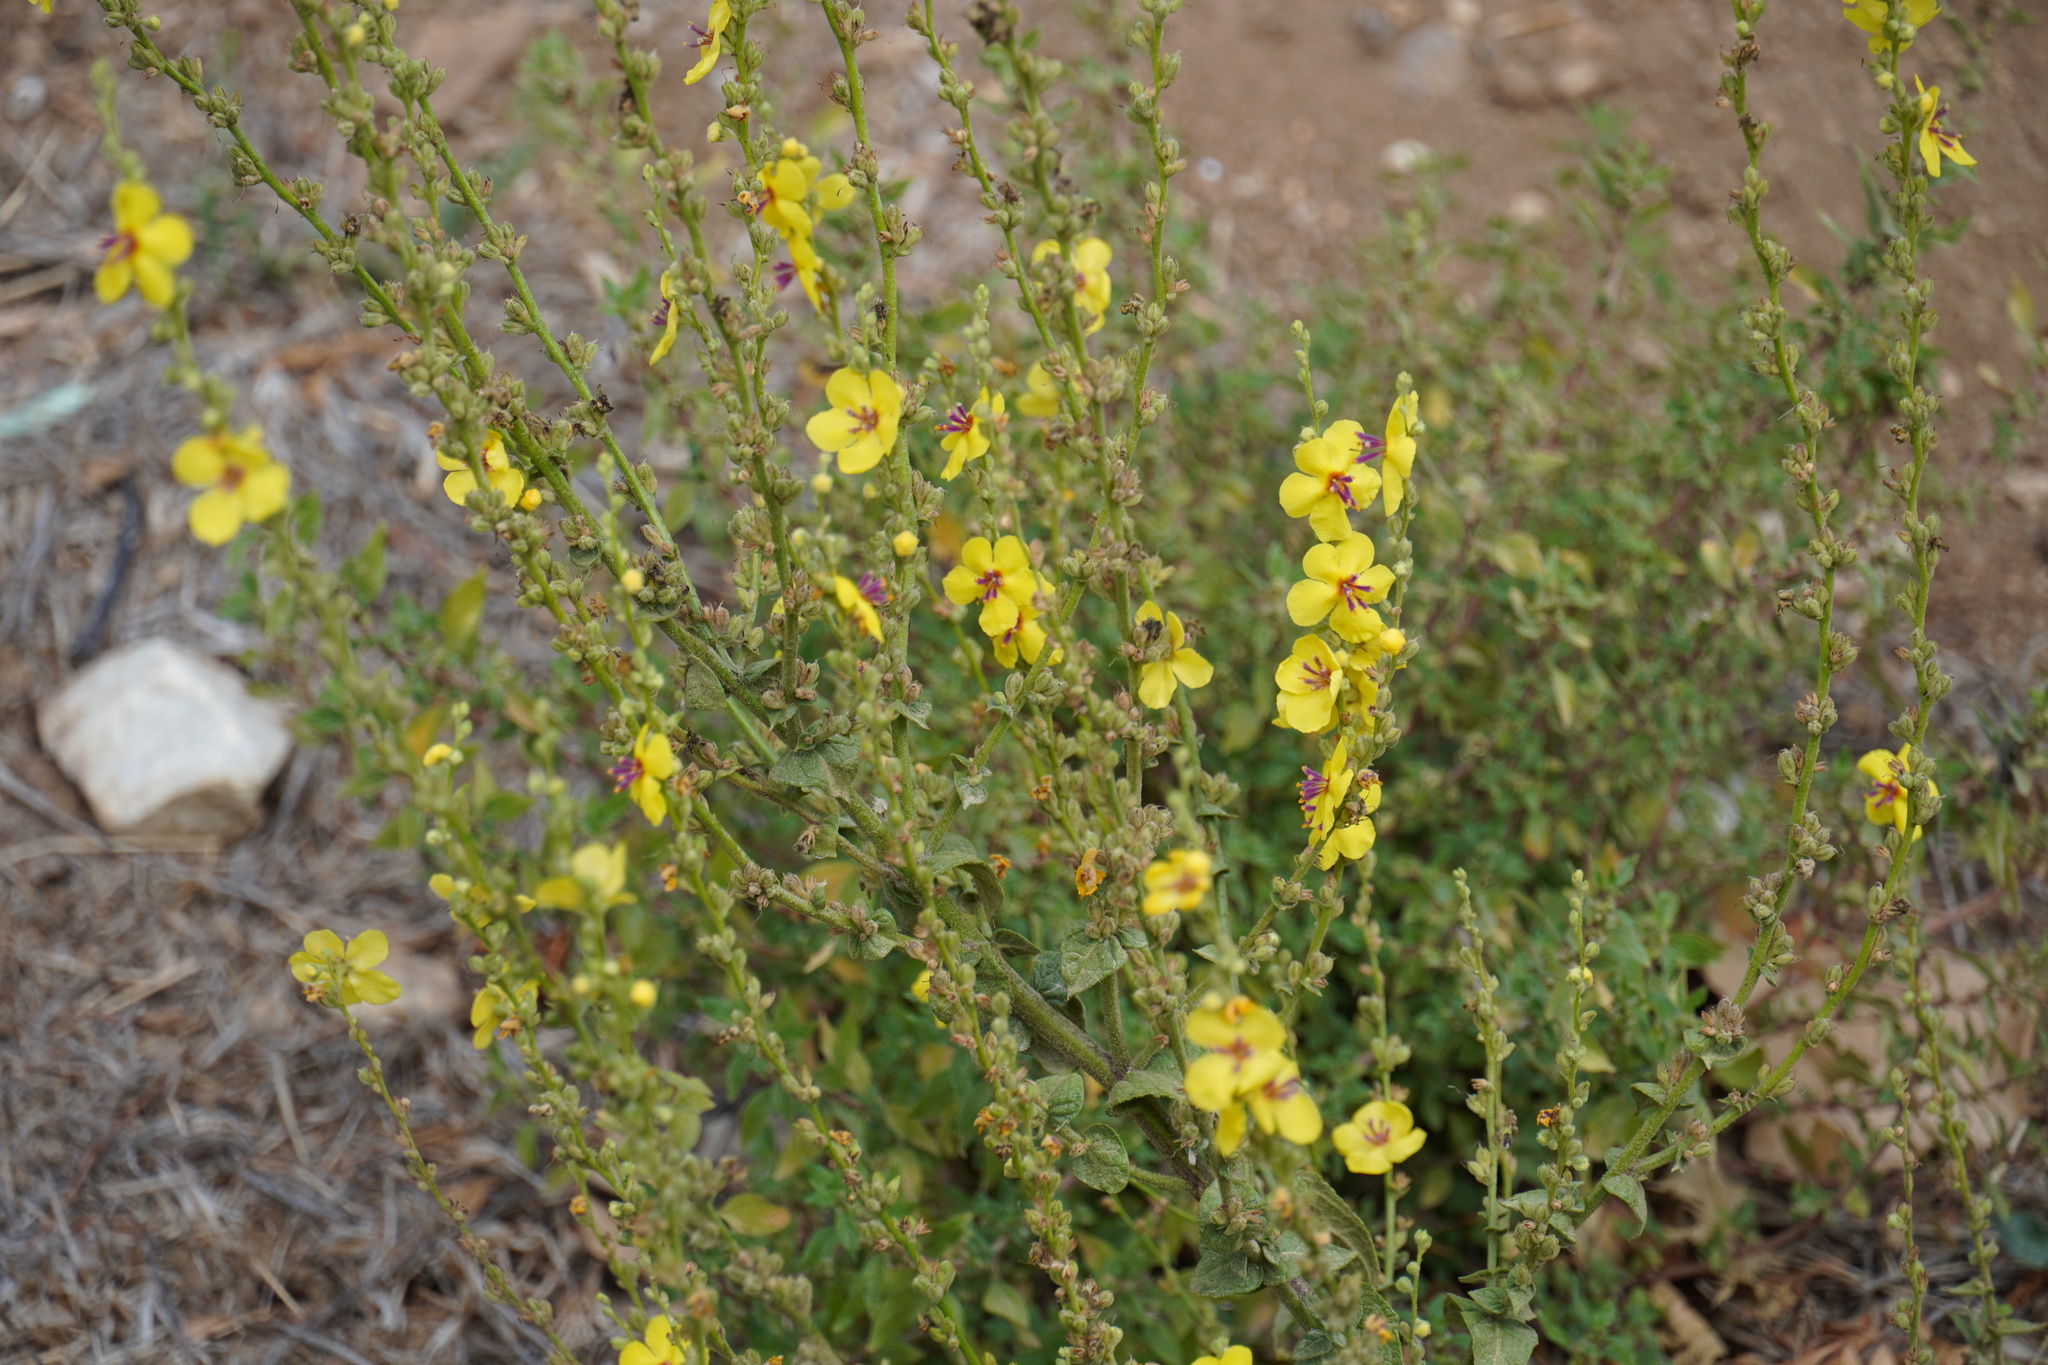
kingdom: Plantae
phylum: Tracheophyta
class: Magnoliopsida
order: Lamiales
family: Scrophulariaceae
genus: Verbascum
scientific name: Verbascum sinuatum
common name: Wavyleaf mullein
